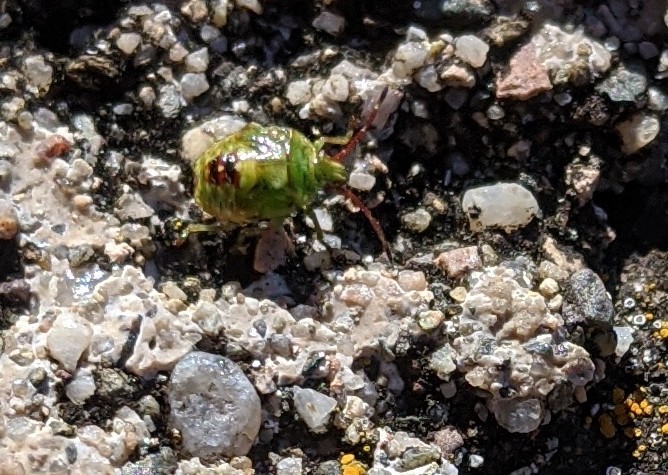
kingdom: Animalia
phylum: Arthropoda
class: Insecta
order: Hemiptera
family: Acanthosomatidae
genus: Elasmostethus
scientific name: Elasmostethus cruciatus
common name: Red-cross shield bug
